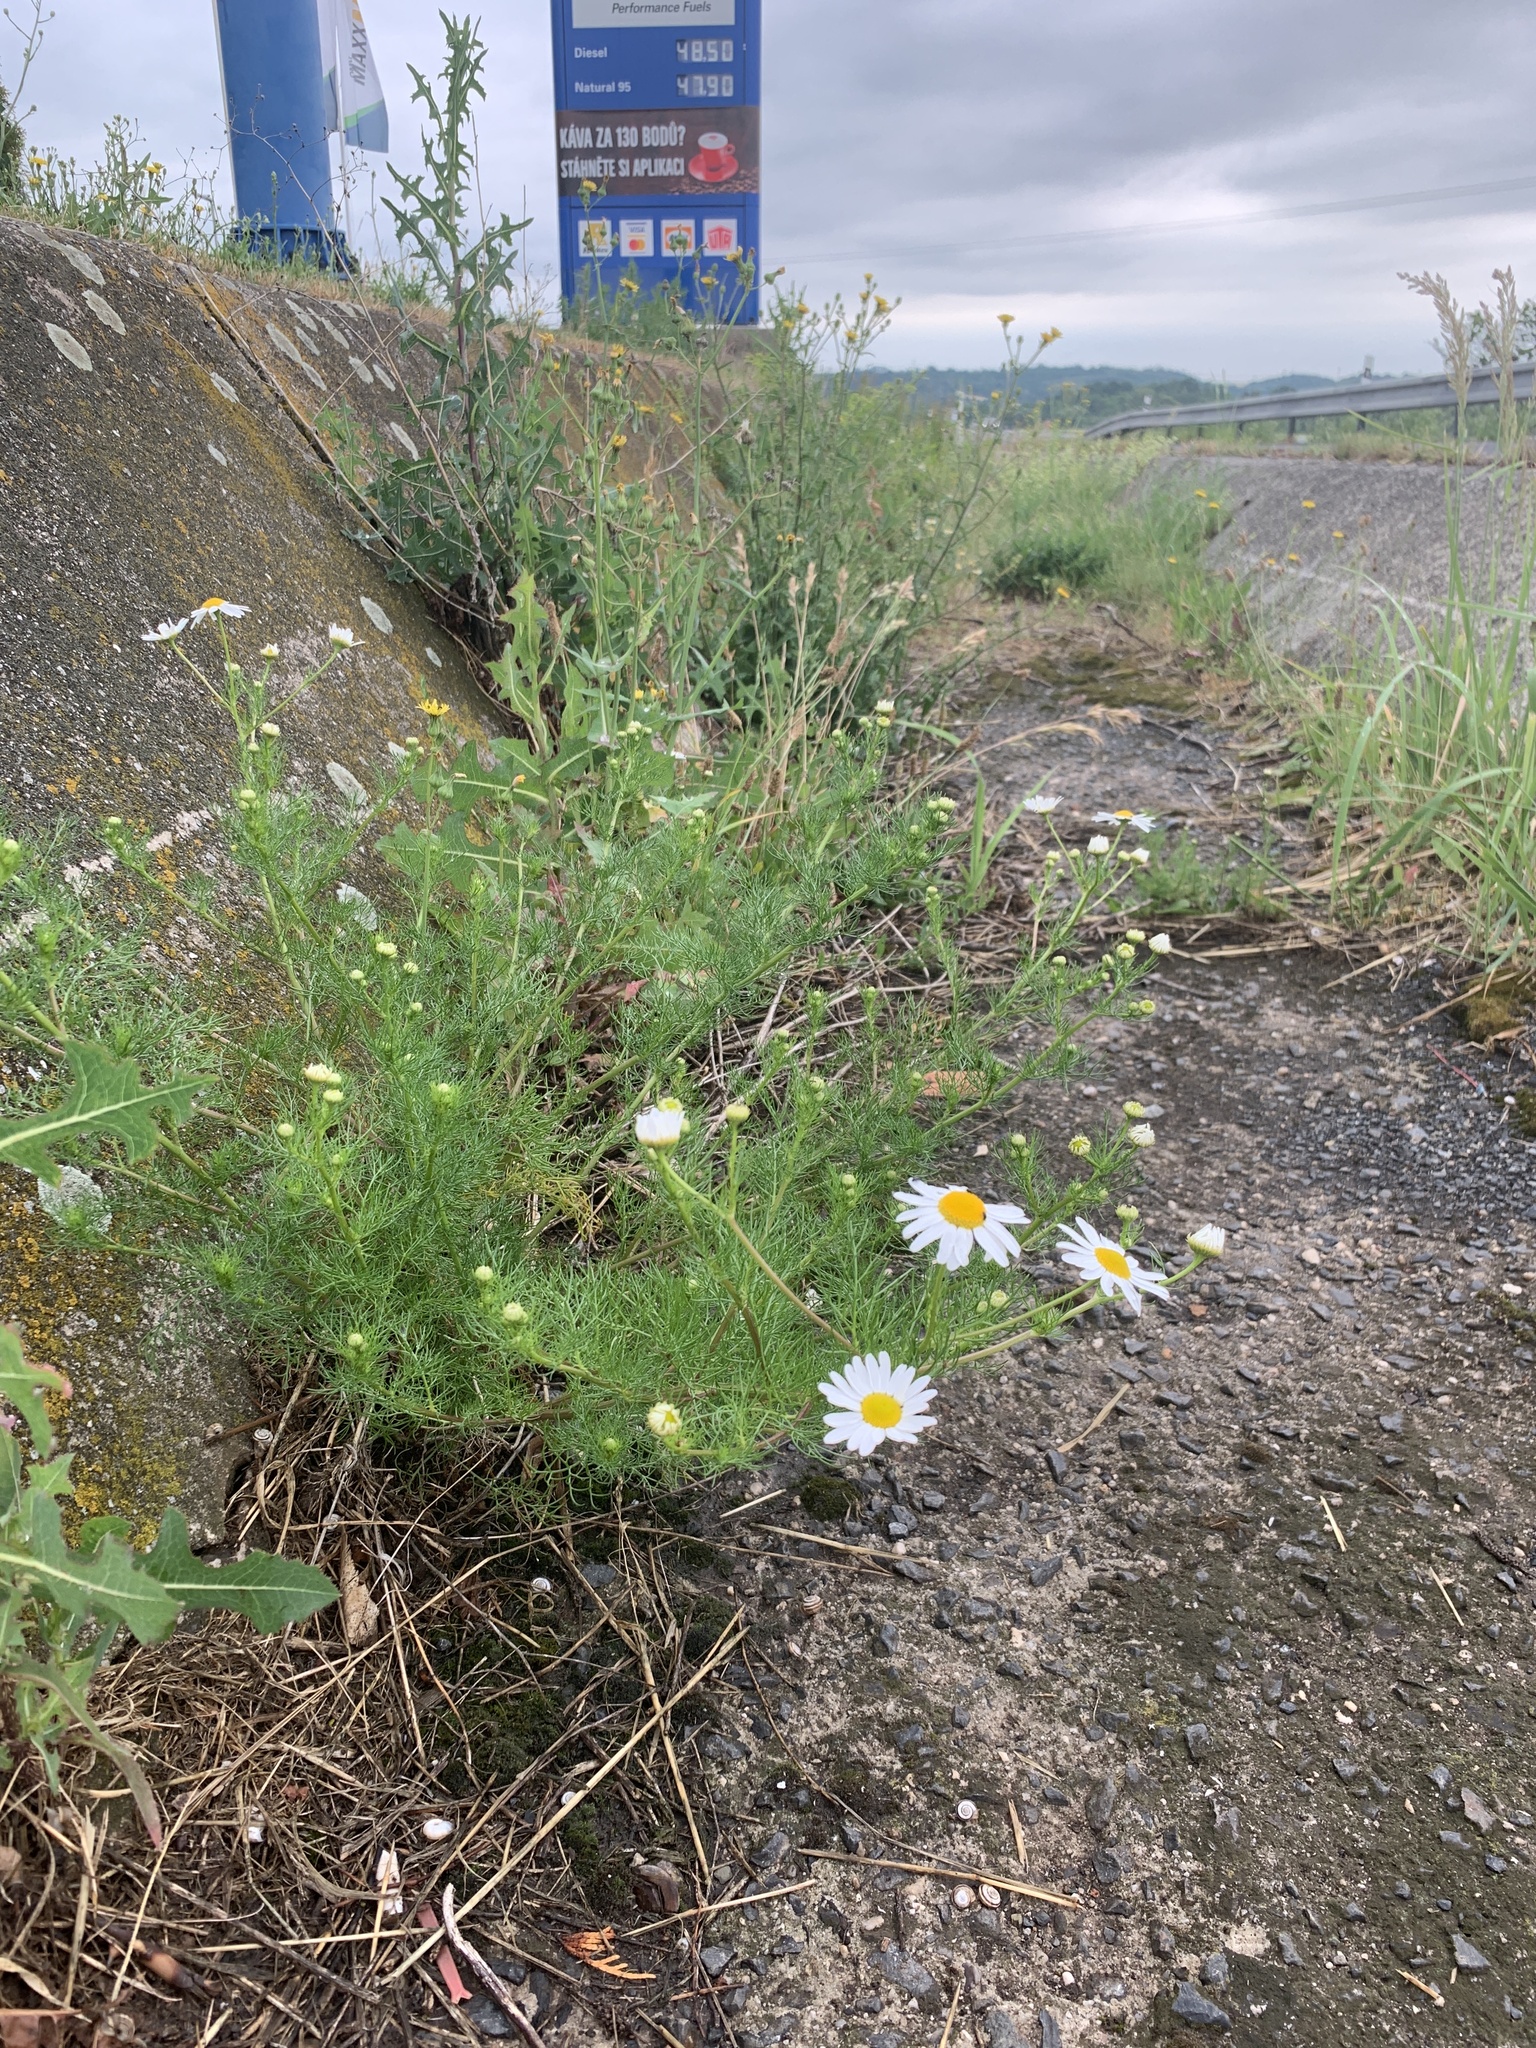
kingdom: Plantae
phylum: Tracheophyta
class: Magnoliopsida
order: Asterales
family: Asteraceae
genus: Tripleurospermum
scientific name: Tripleurospermum inodorum
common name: Scentless mayweed
